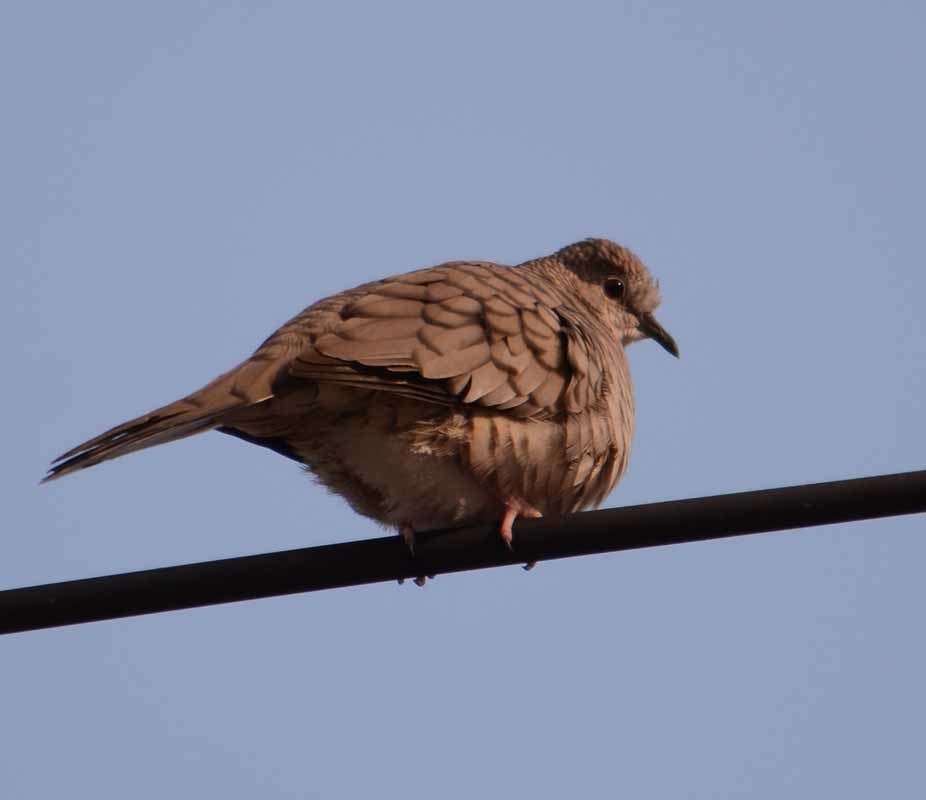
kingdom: Animalia
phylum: Chordata
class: Aves
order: Columbiformes
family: Columbidae
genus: Columbina
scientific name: Columbina inca
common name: Inca dove
